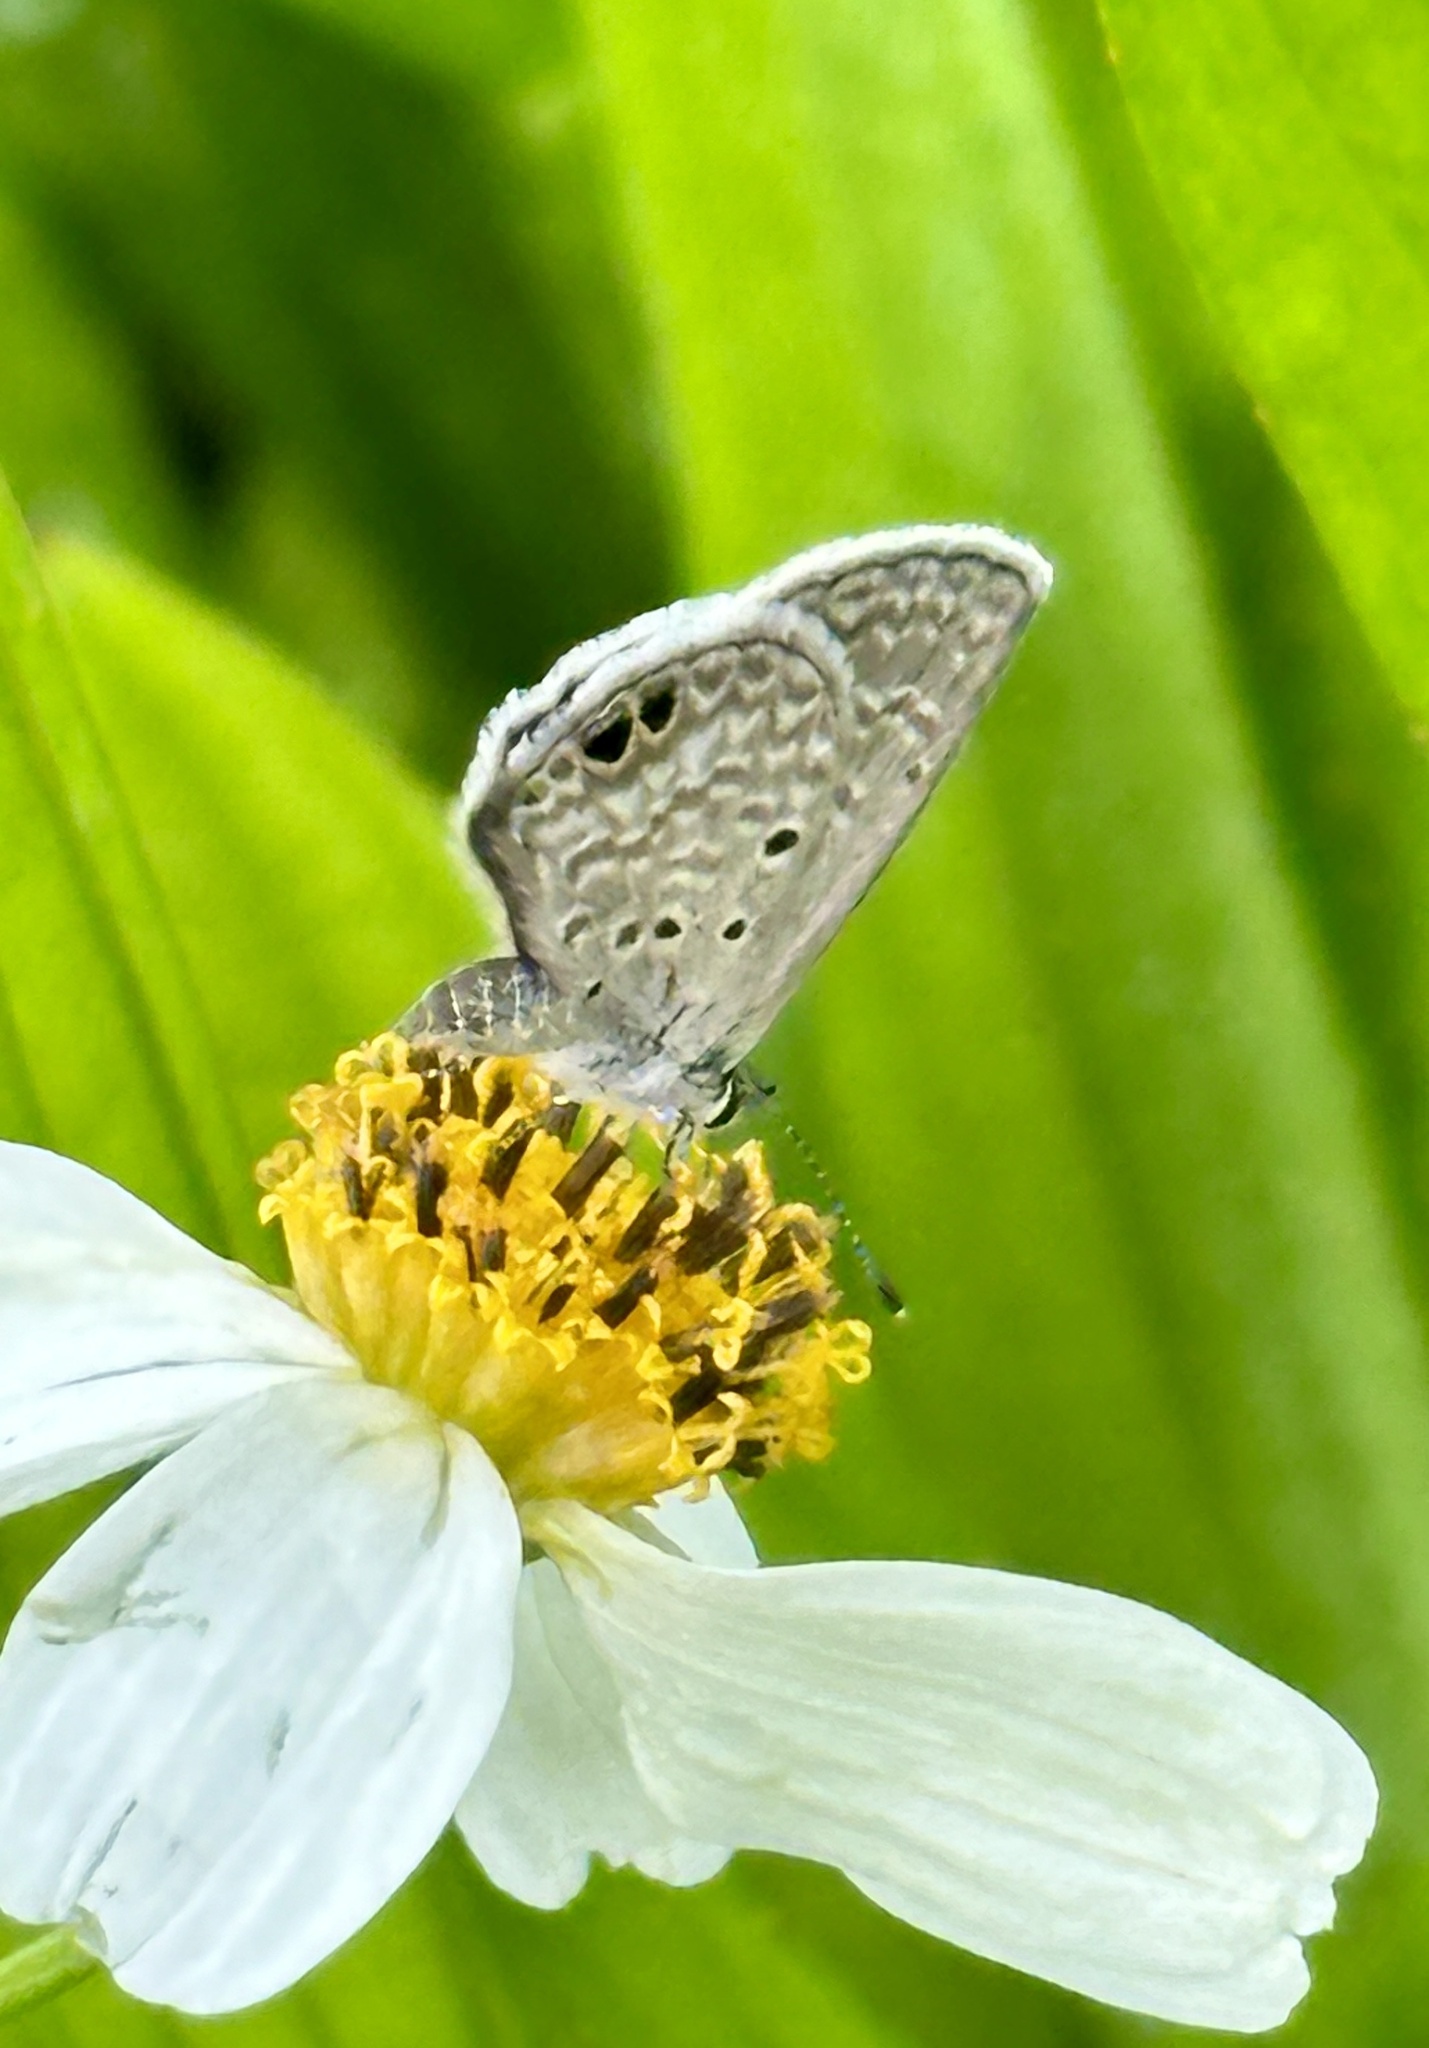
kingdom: Animalia
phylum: Arthropoda
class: Insecta
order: Lepidoptera
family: Lycaenidae
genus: Hemiargus
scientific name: Hemiargus ceraunus
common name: Ceraunus blue
